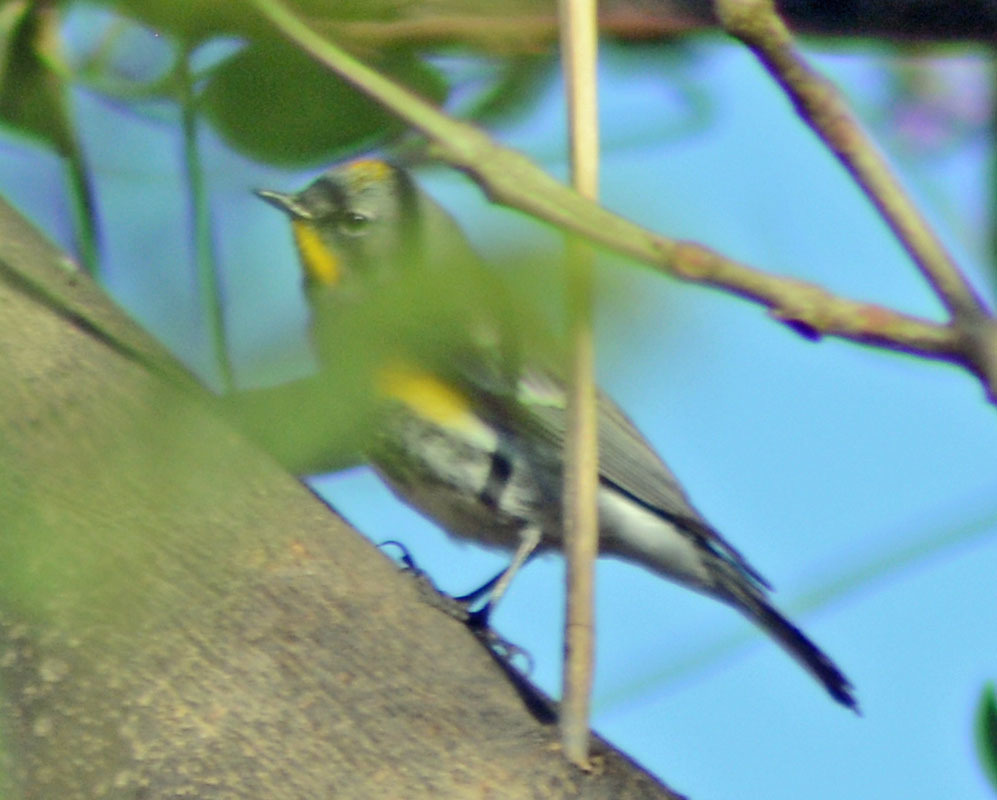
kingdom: Animalia
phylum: Chordata
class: Aves
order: Passeriformes
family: Parulidae
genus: Setophaga
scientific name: Setophaga auduboni
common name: Audubon's warbler
